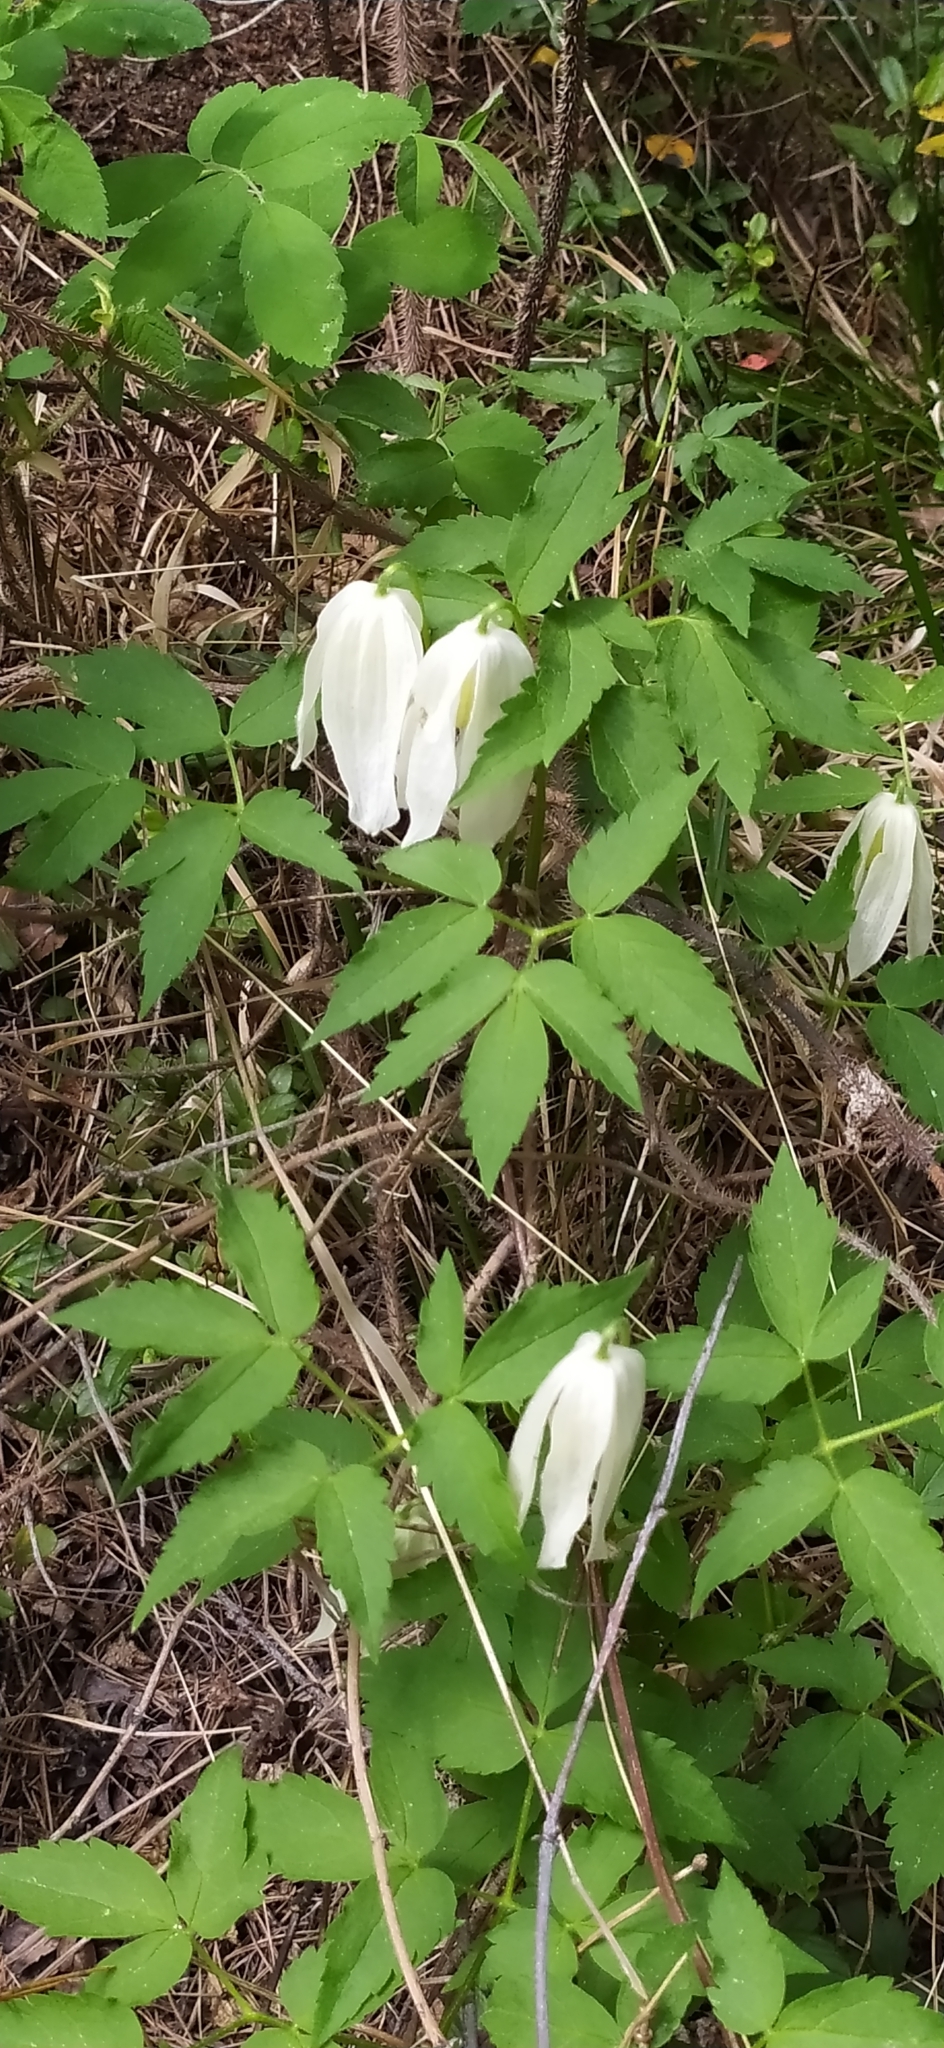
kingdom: Plantae
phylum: Tracheophyta
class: Magnoliopsida
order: Ranunculales
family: Ranunculaceae
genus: Clematis
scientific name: Clematis sibirica
